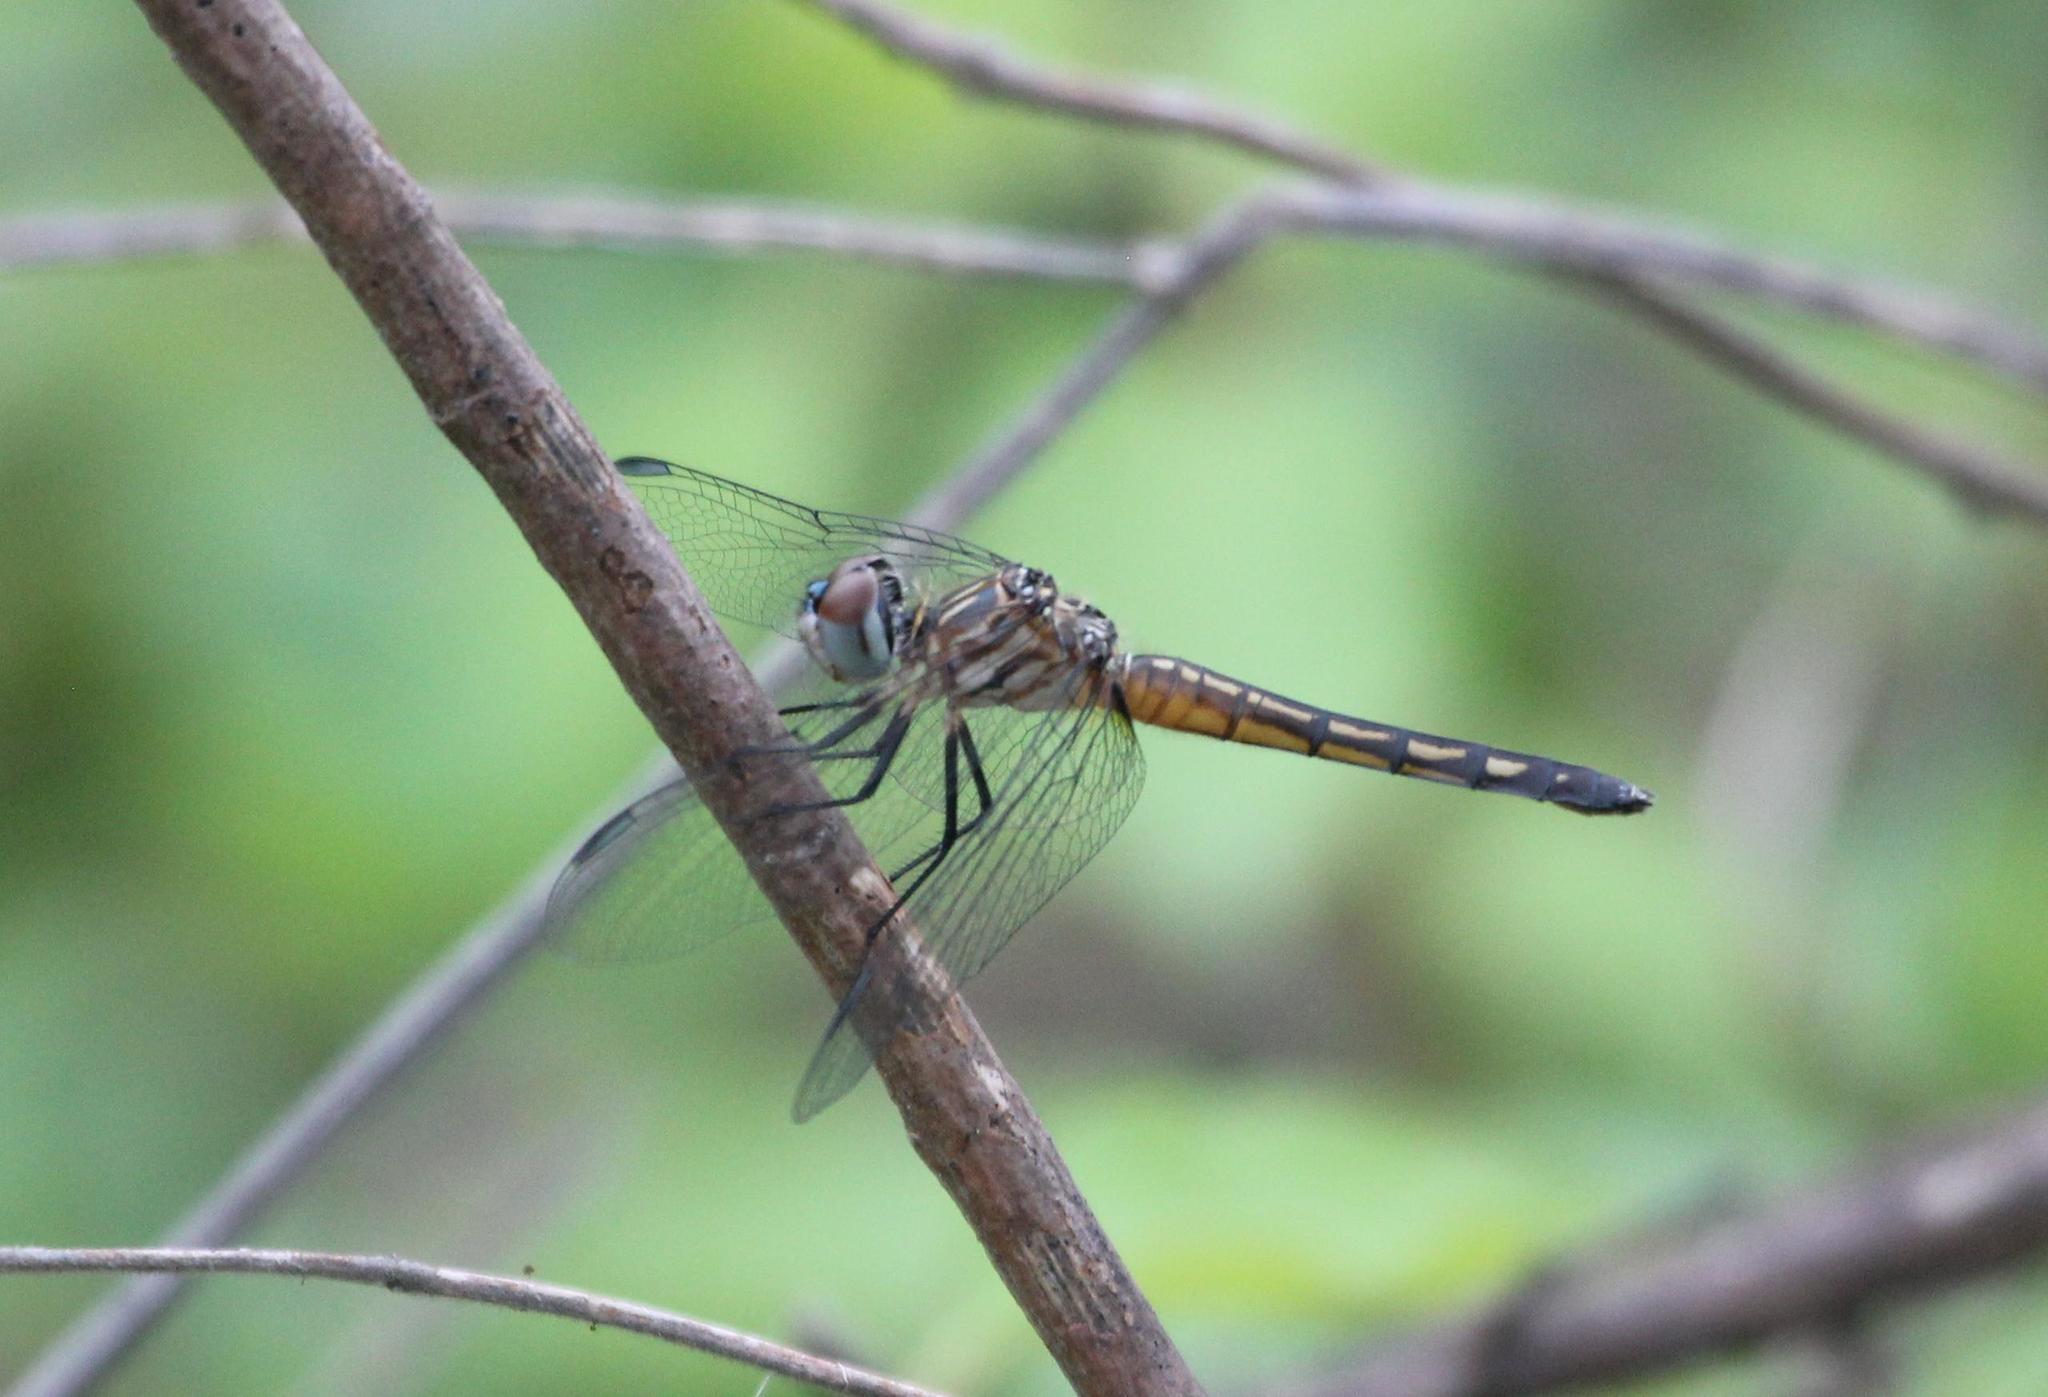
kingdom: Animalia
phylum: Arthropoda
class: Insecta
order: Odonata
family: Libellulidae
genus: Pachydiplax
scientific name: Pachydiplax longipennis
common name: Blue dasher
